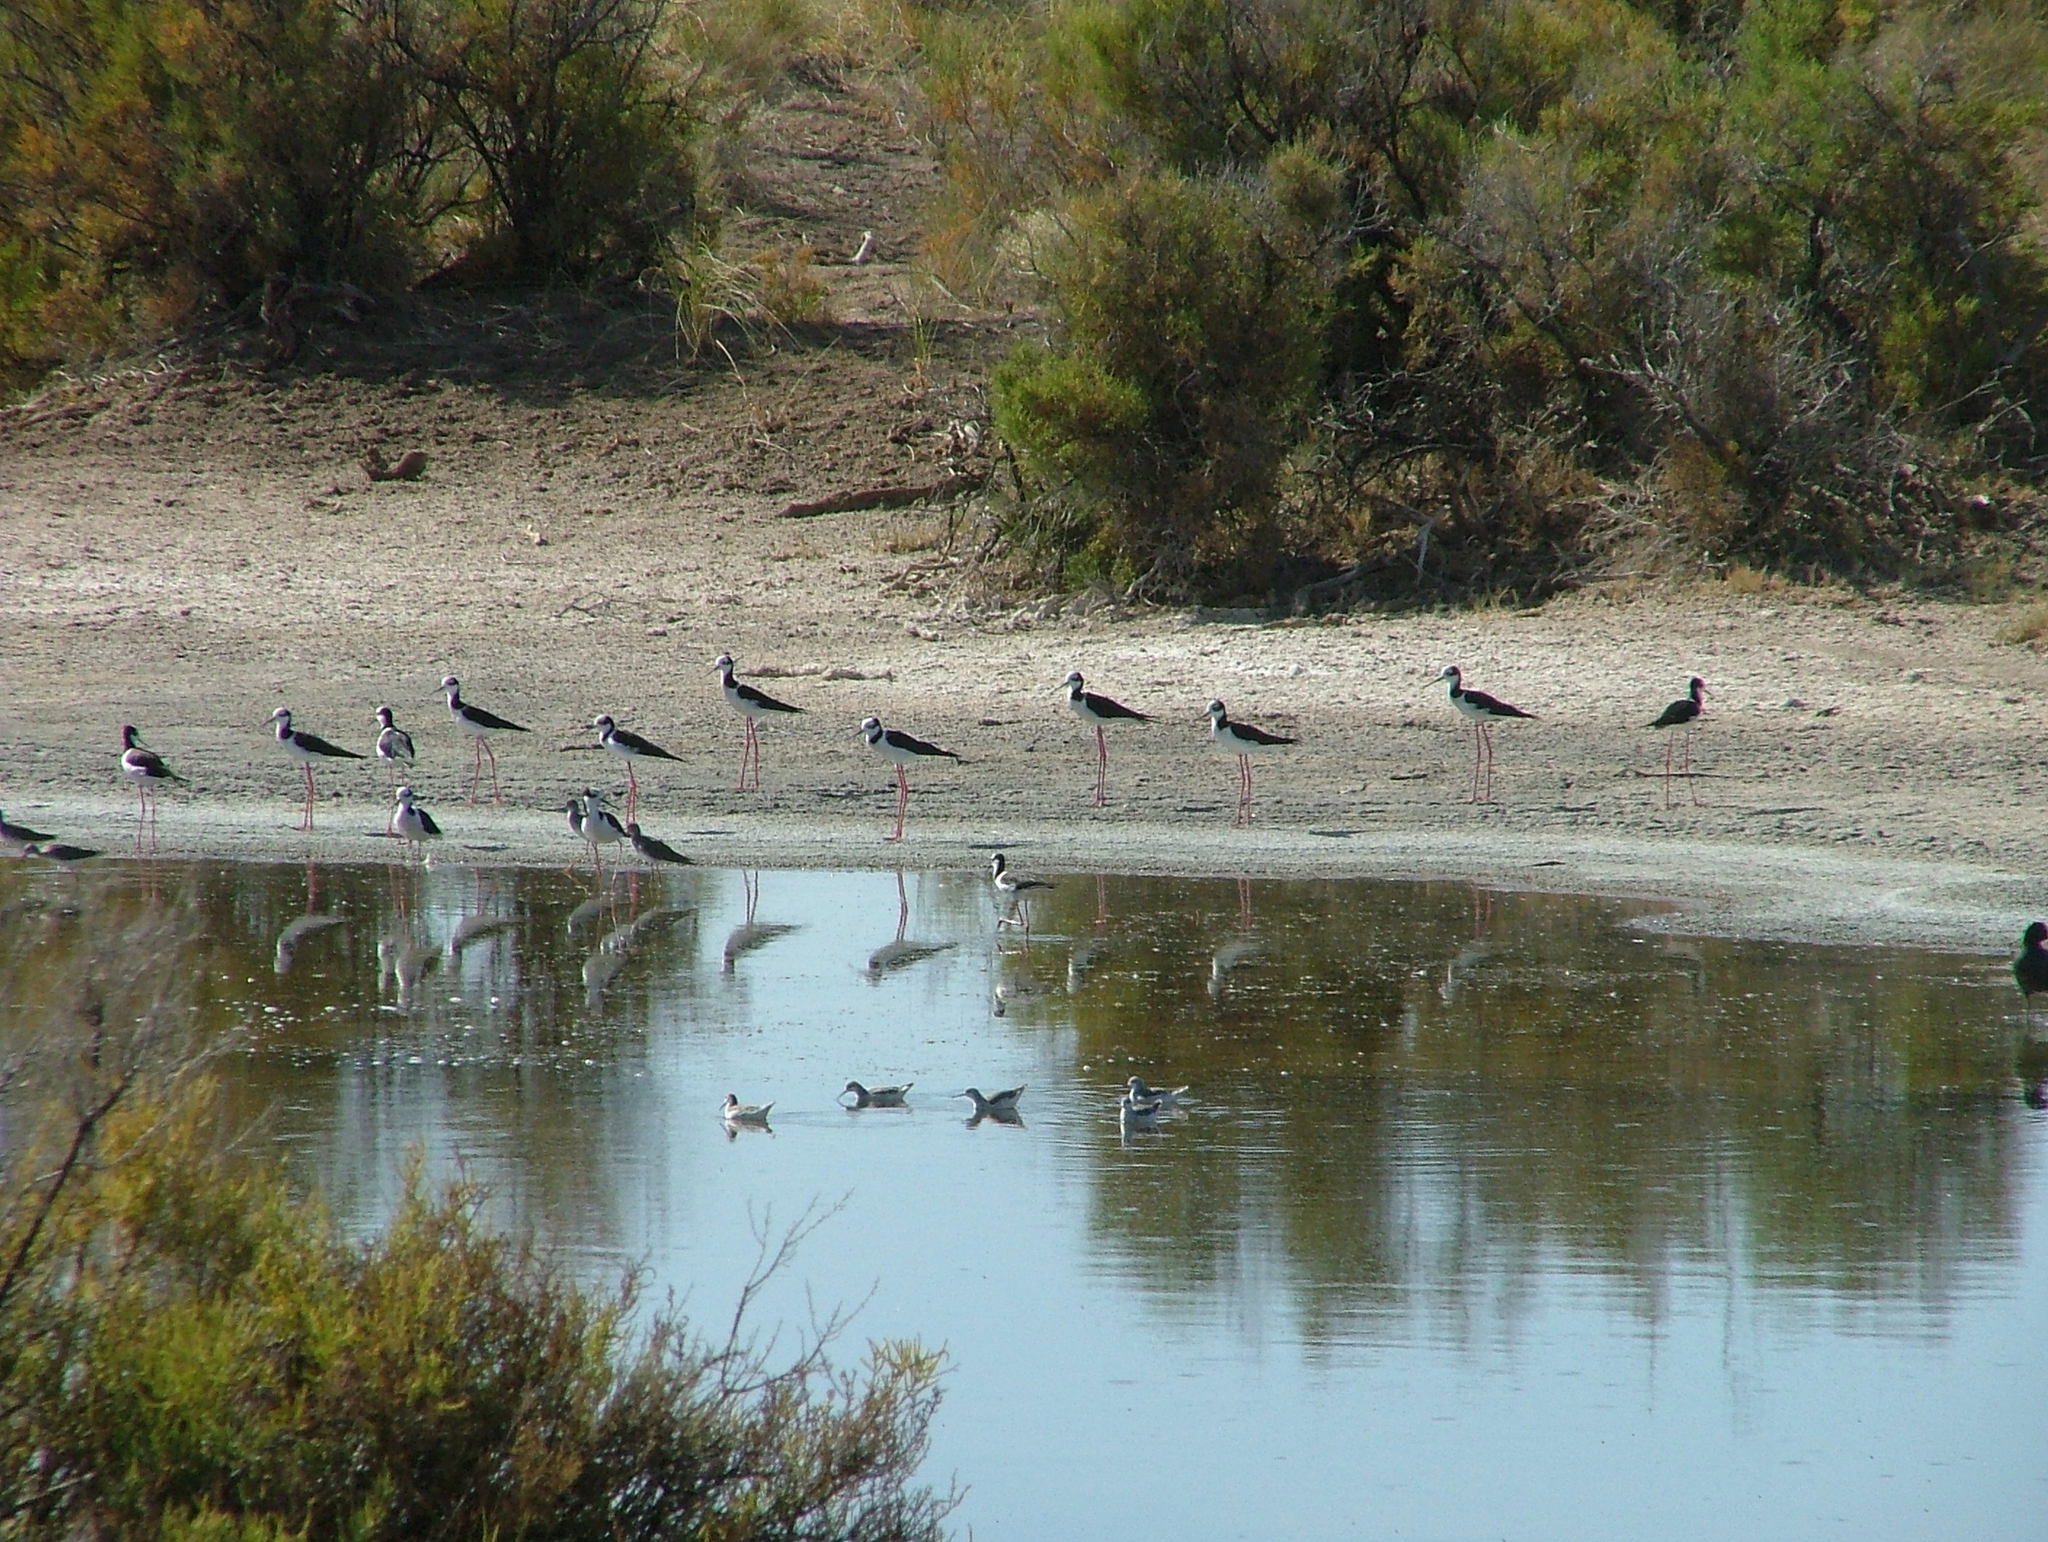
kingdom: Animalia
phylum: Chordata
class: Aves
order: Charadriiformes
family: Recurvirostridae
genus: Himantopus
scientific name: Himantopus mexicanus
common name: Black-necked stilt
